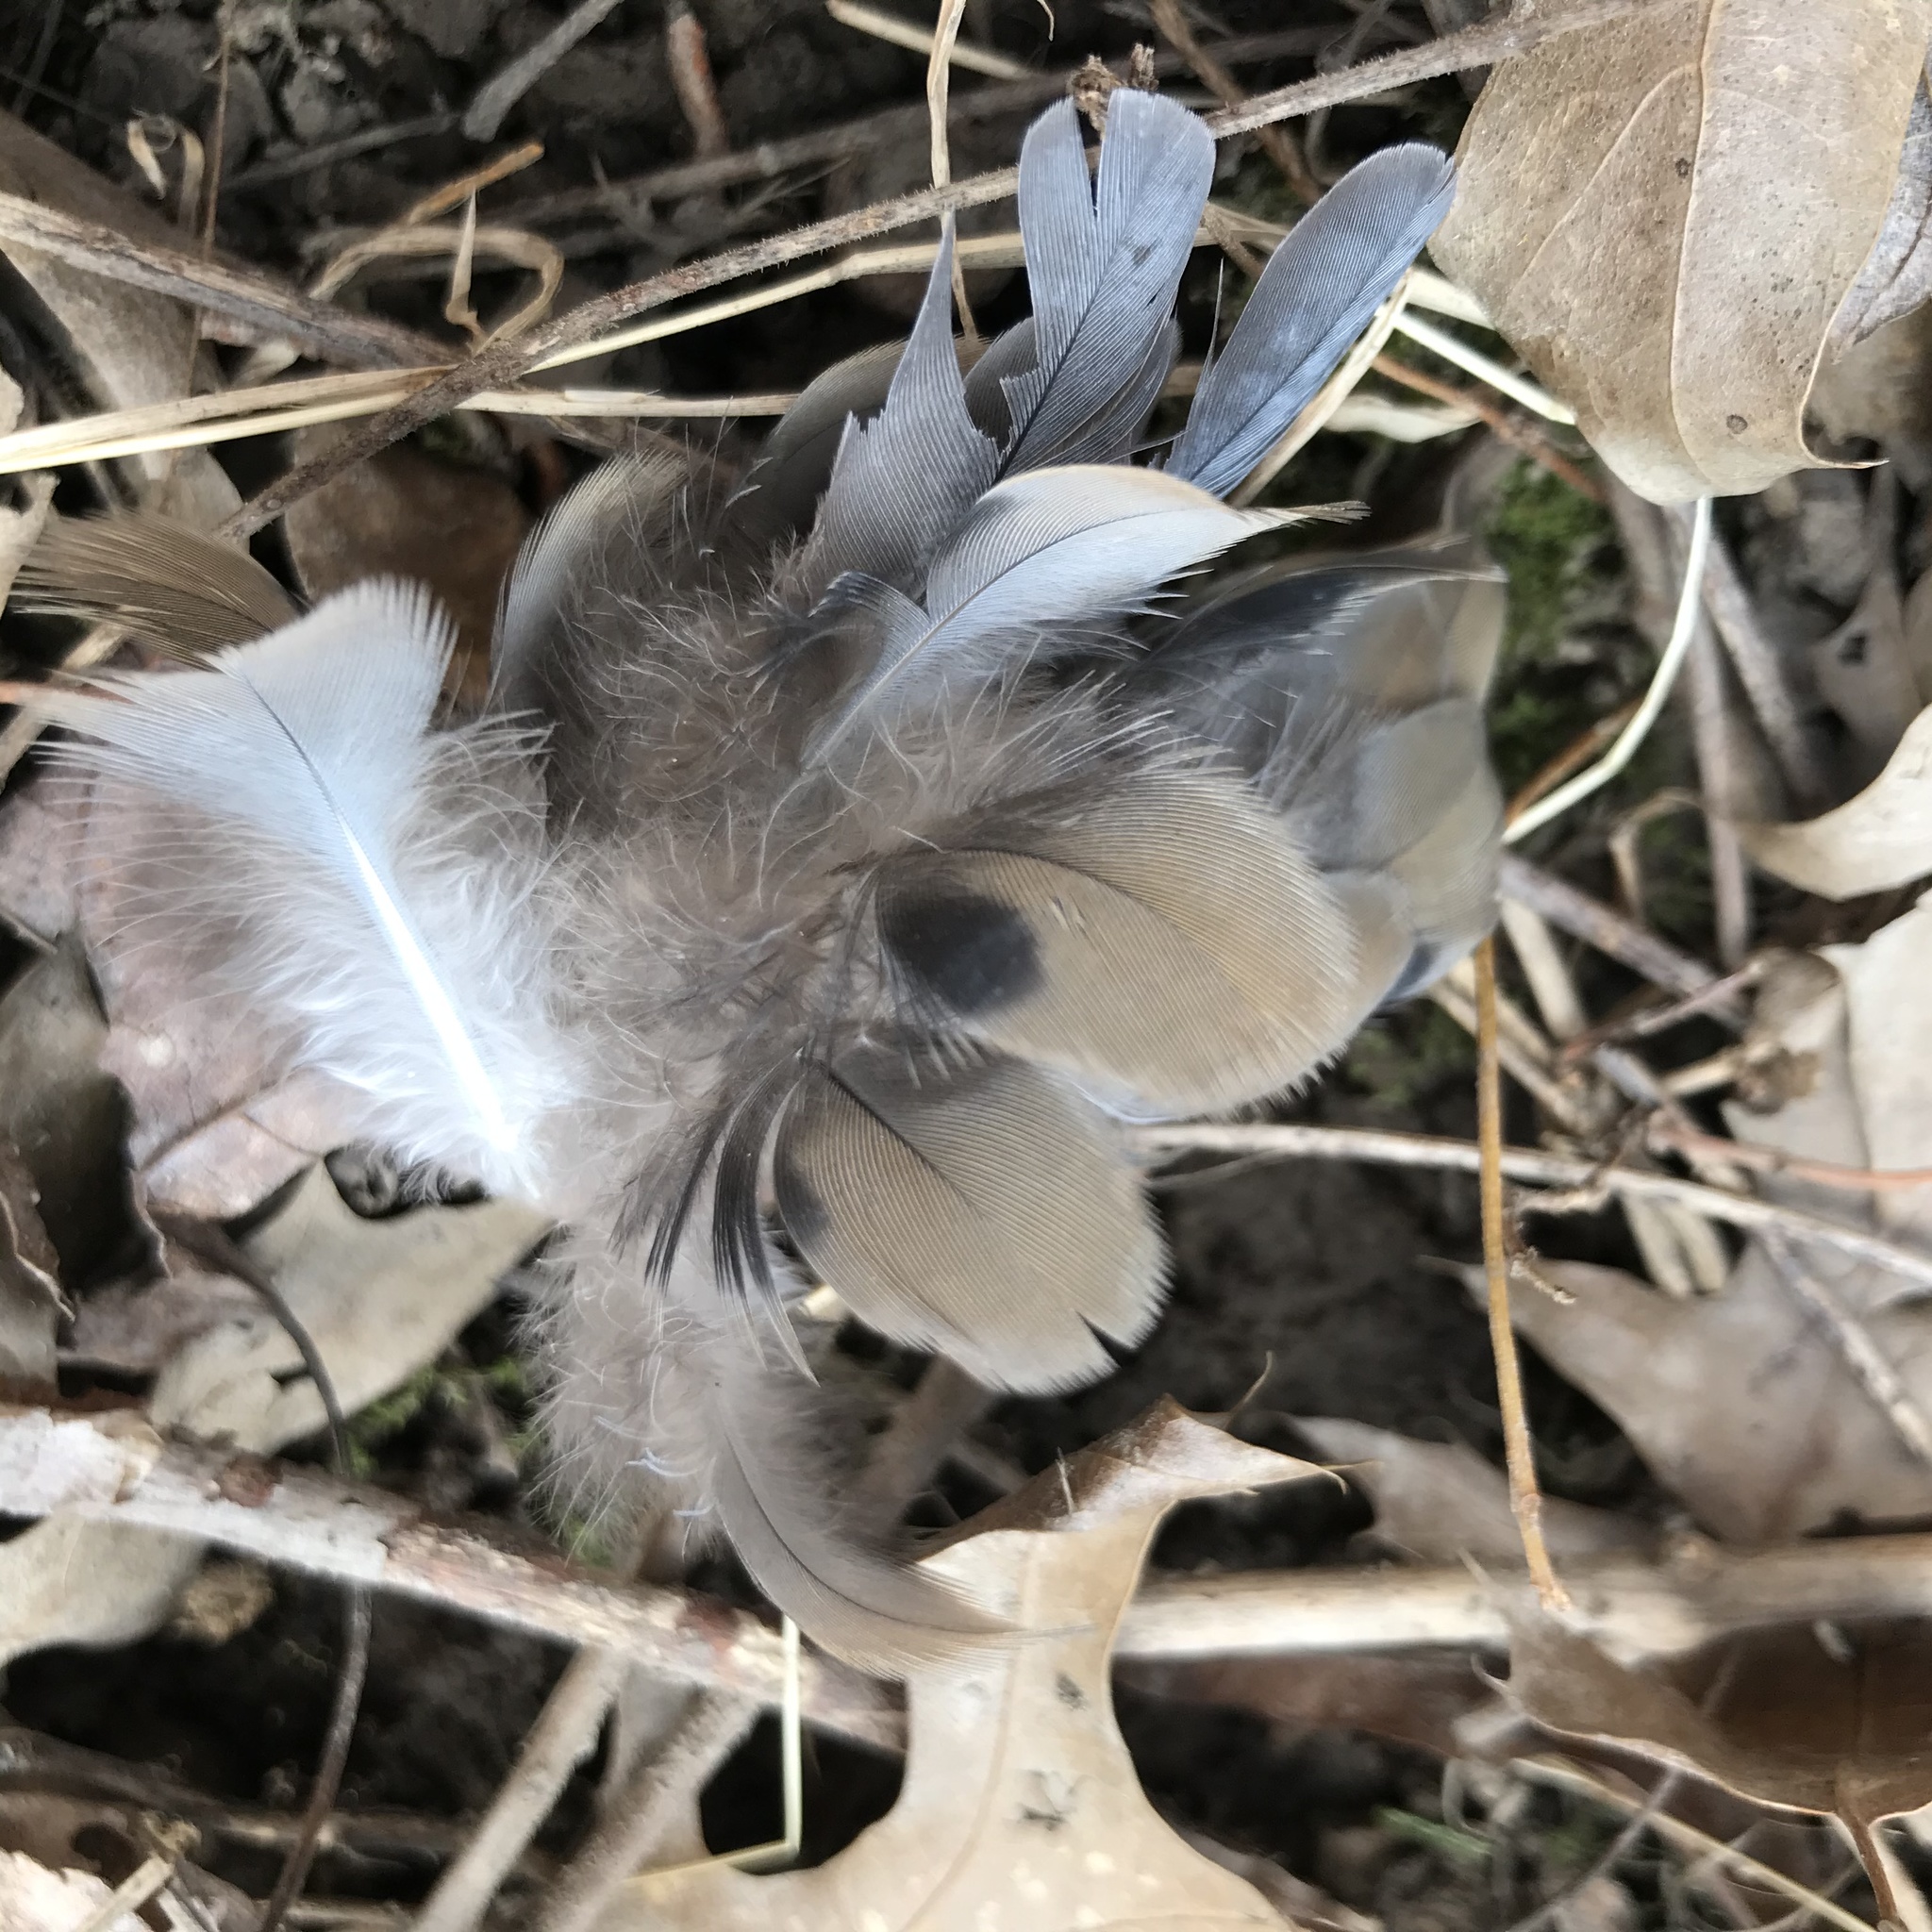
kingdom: Animalia
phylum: Chordata
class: Aves
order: Columbiformes
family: Columbidae
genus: Zenaida
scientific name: Zenaida macroura
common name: Mourning dove
